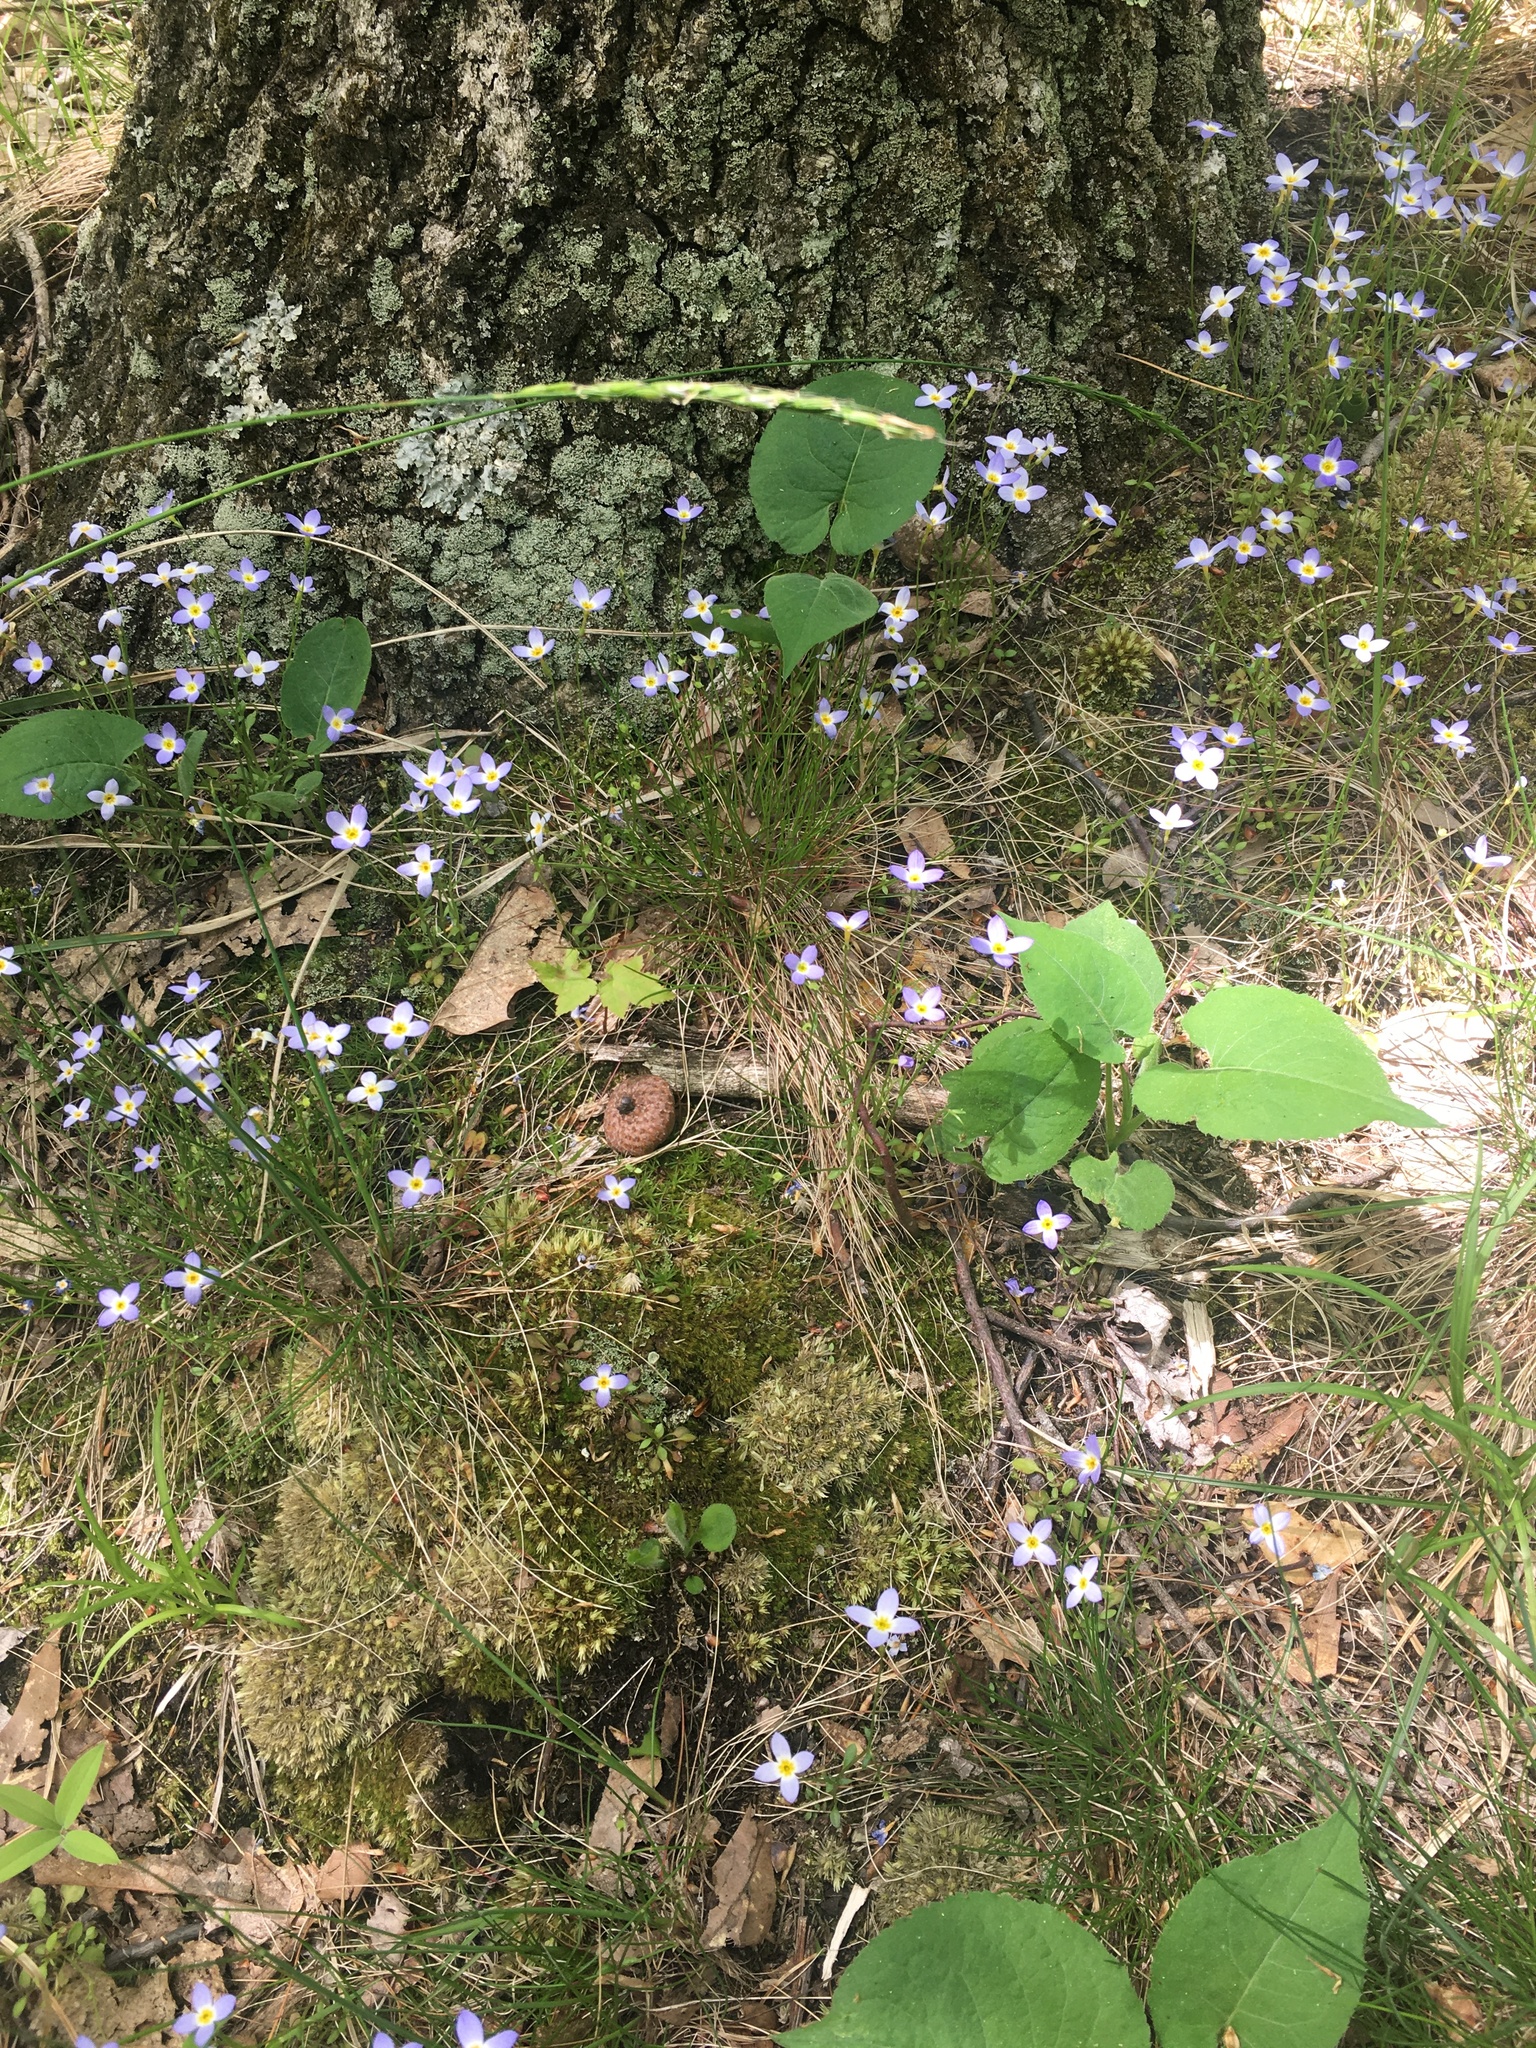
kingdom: Plantae
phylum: Tracheophyta
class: Magnoliopsida
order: Gentianales
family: Rubiaceae
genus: Houstonia
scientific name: Houstonia caerulea
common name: Bluets
